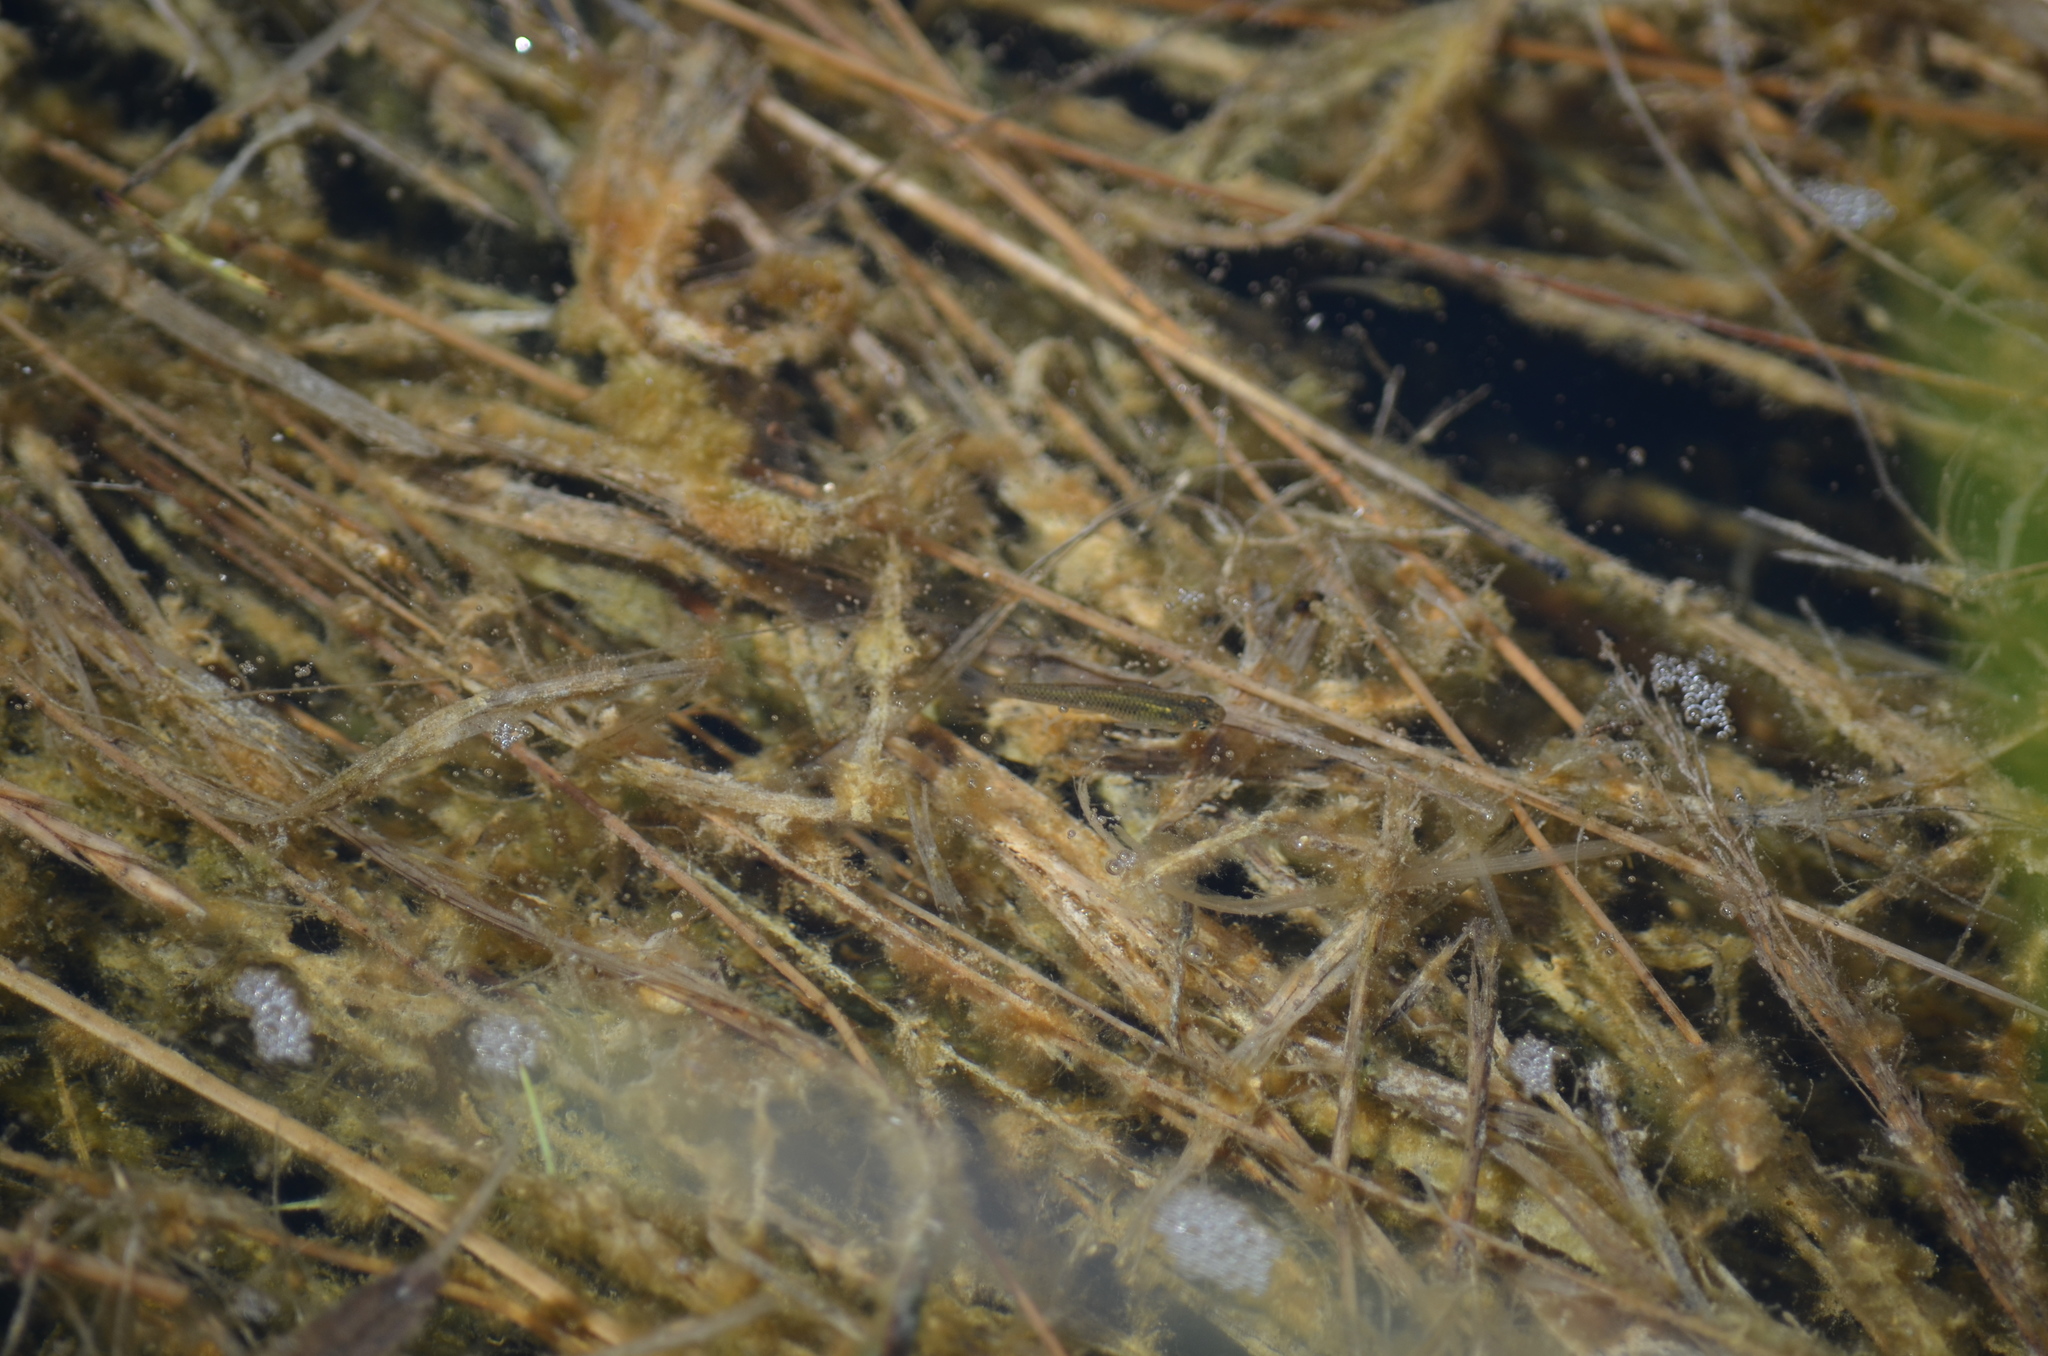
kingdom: Animalia
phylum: Chordata
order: Cyprinodontiformes
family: Poeciliidae
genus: Poecilia
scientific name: Poecilia latipinna
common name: Sailfin molly
